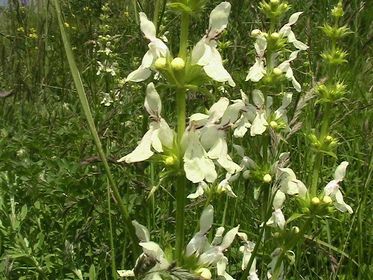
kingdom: Plantae
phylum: Tracheophyta
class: Magnoliopsida
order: Lamiales
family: Lamiaceae
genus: Stachys
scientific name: Stachys recta
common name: Perennial yellow-woundwort
